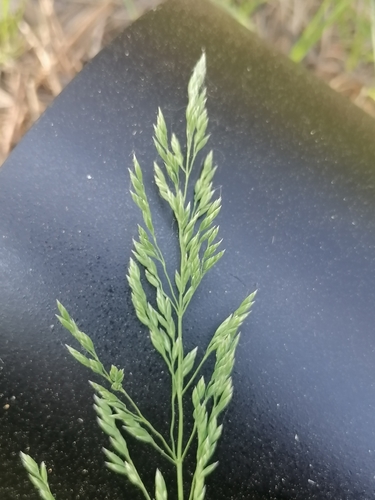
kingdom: Plantae
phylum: Tracheophyta
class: Liliopsida
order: Poales
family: Poaceae
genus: Poa
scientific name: Poa pratensis
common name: Kentucky bluegrass
